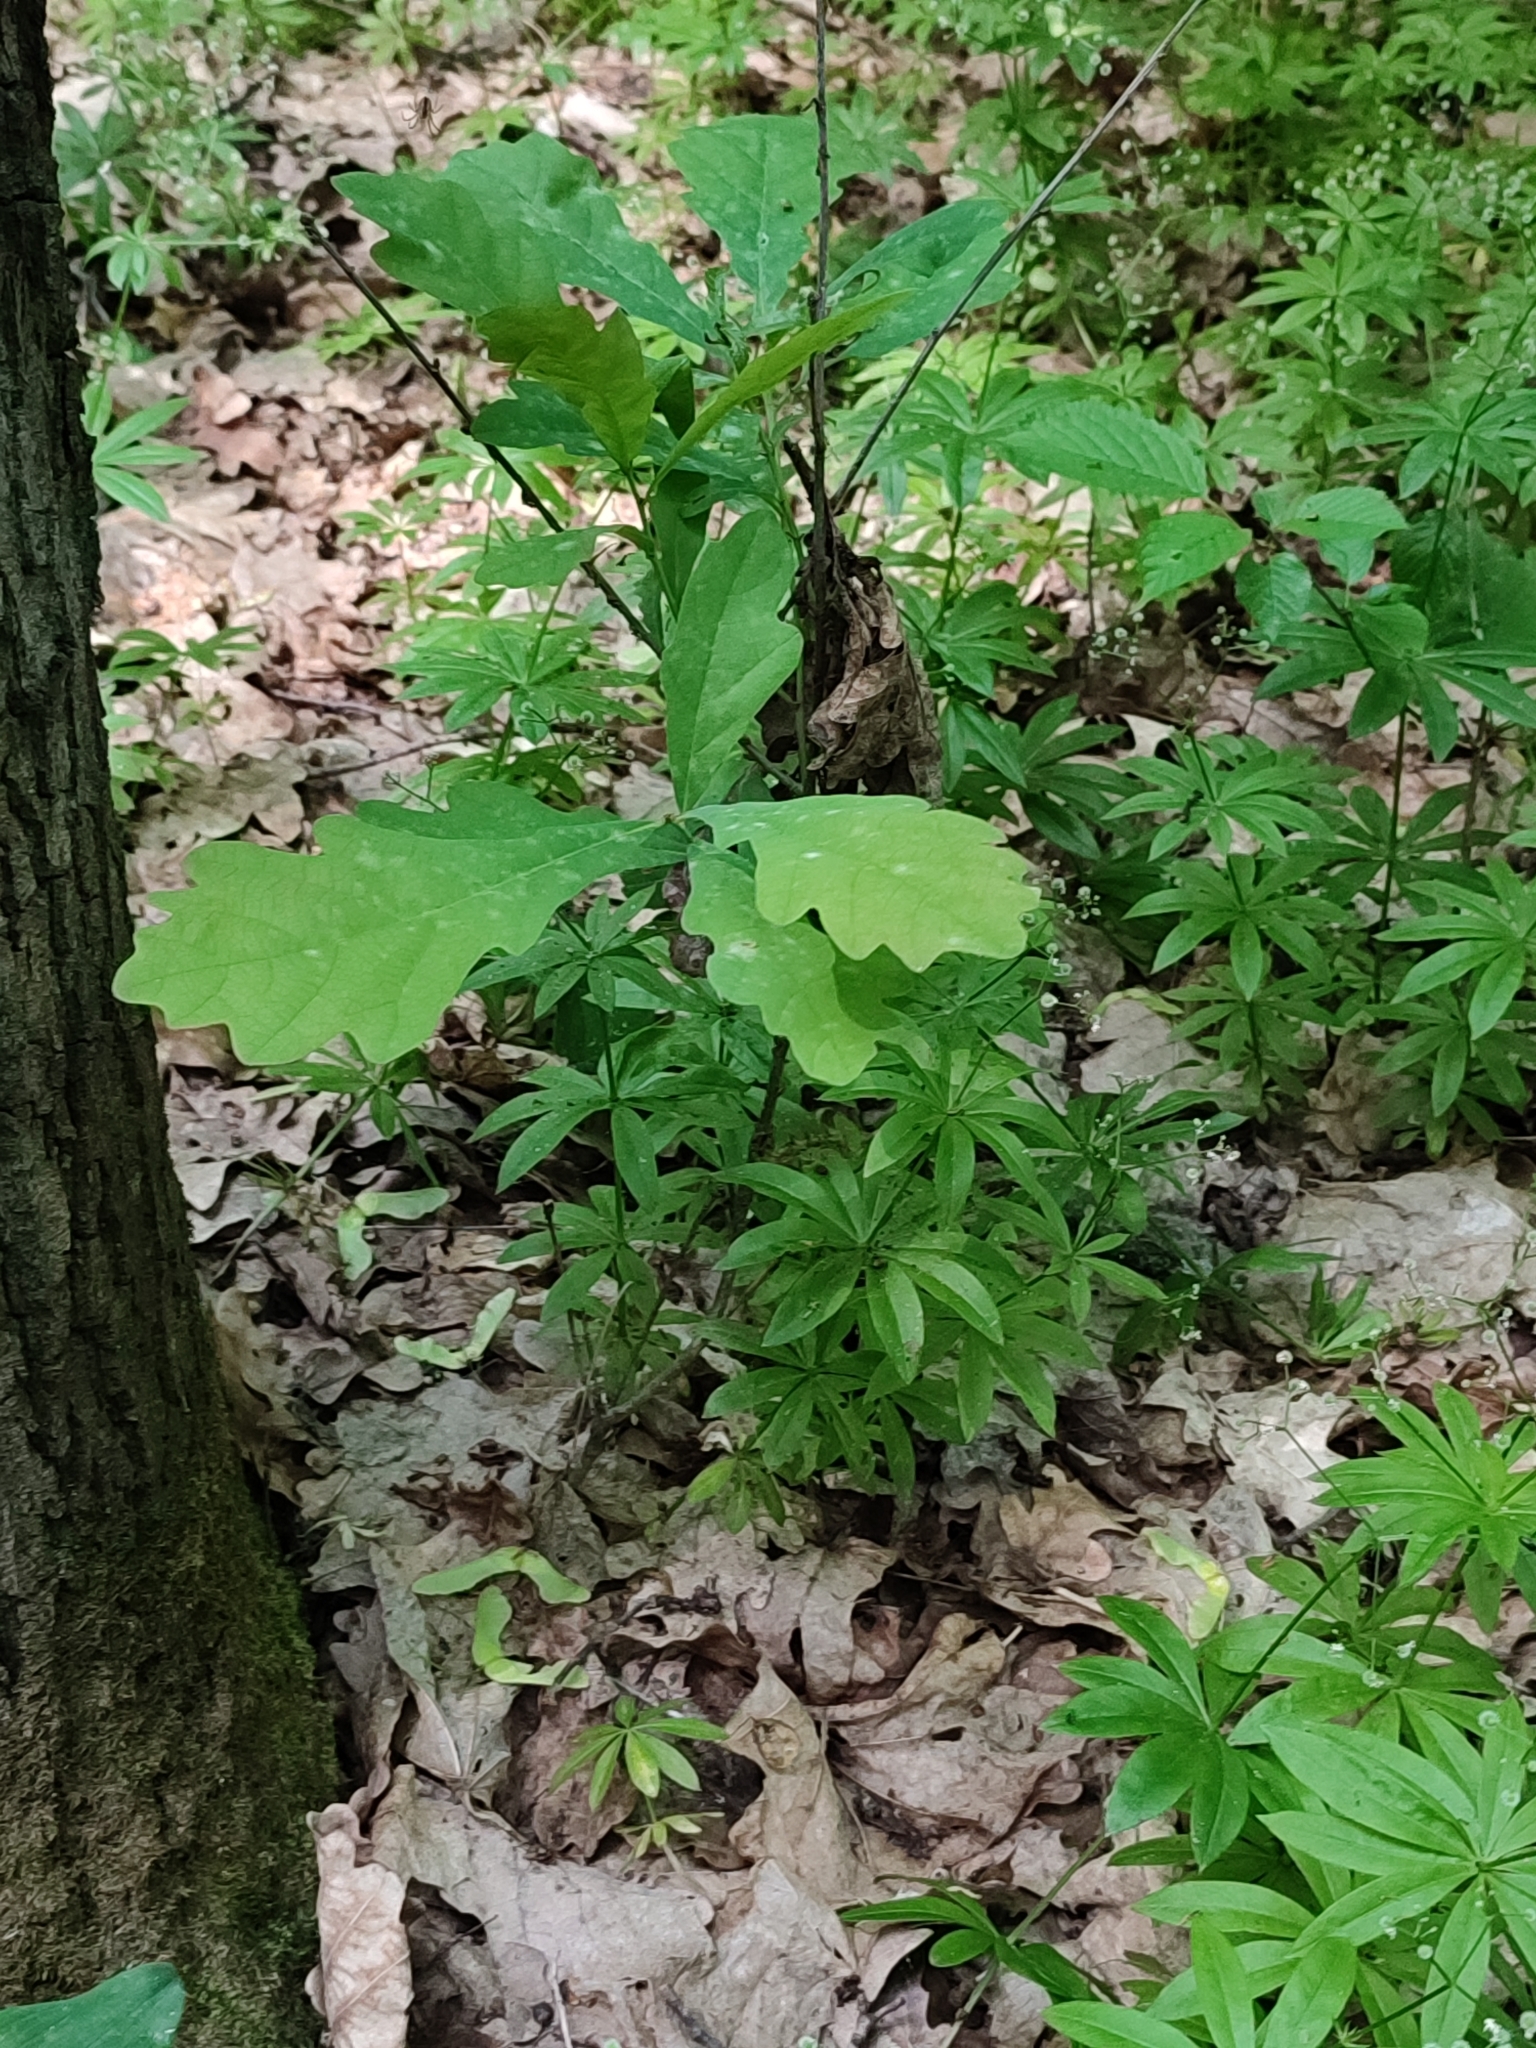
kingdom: Plantae
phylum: Tracheophyta
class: Magnoliopsida
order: Fagales
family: Fagaceae
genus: Quercus
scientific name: Quercus robur
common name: Pedunculate oak
